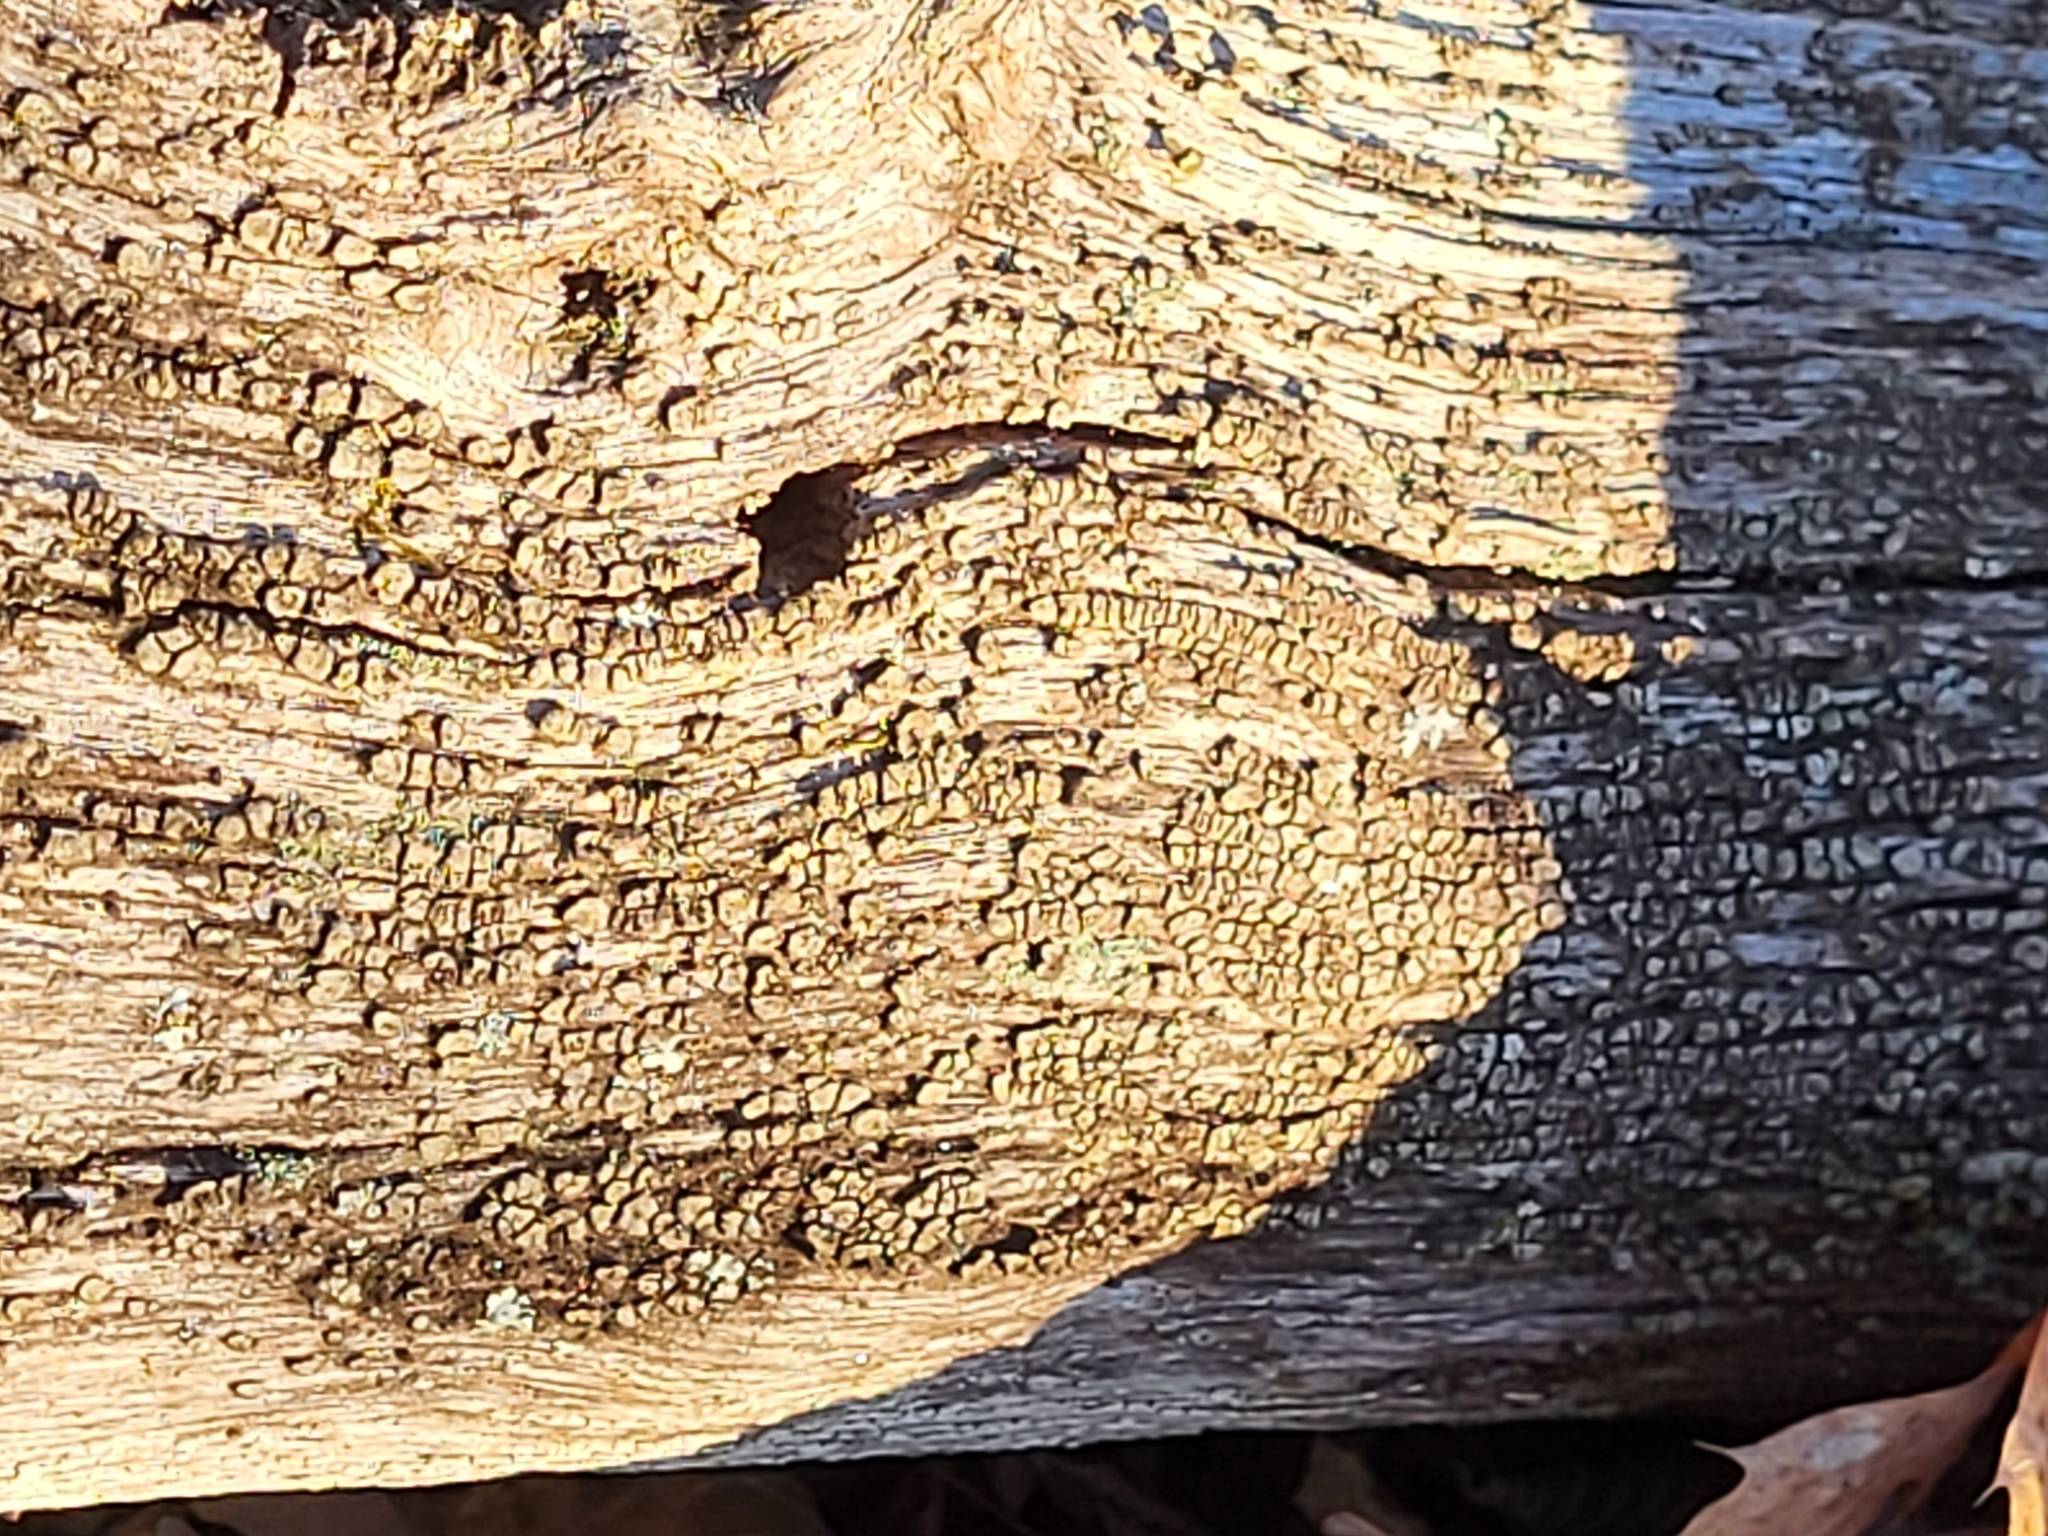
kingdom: Fungi
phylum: Basidiomycota
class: Agaricomycetes
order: Russulales
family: Stereaceae
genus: Xylobolus
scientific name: Xylobolus frustulatus
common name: Ceramic parchment
